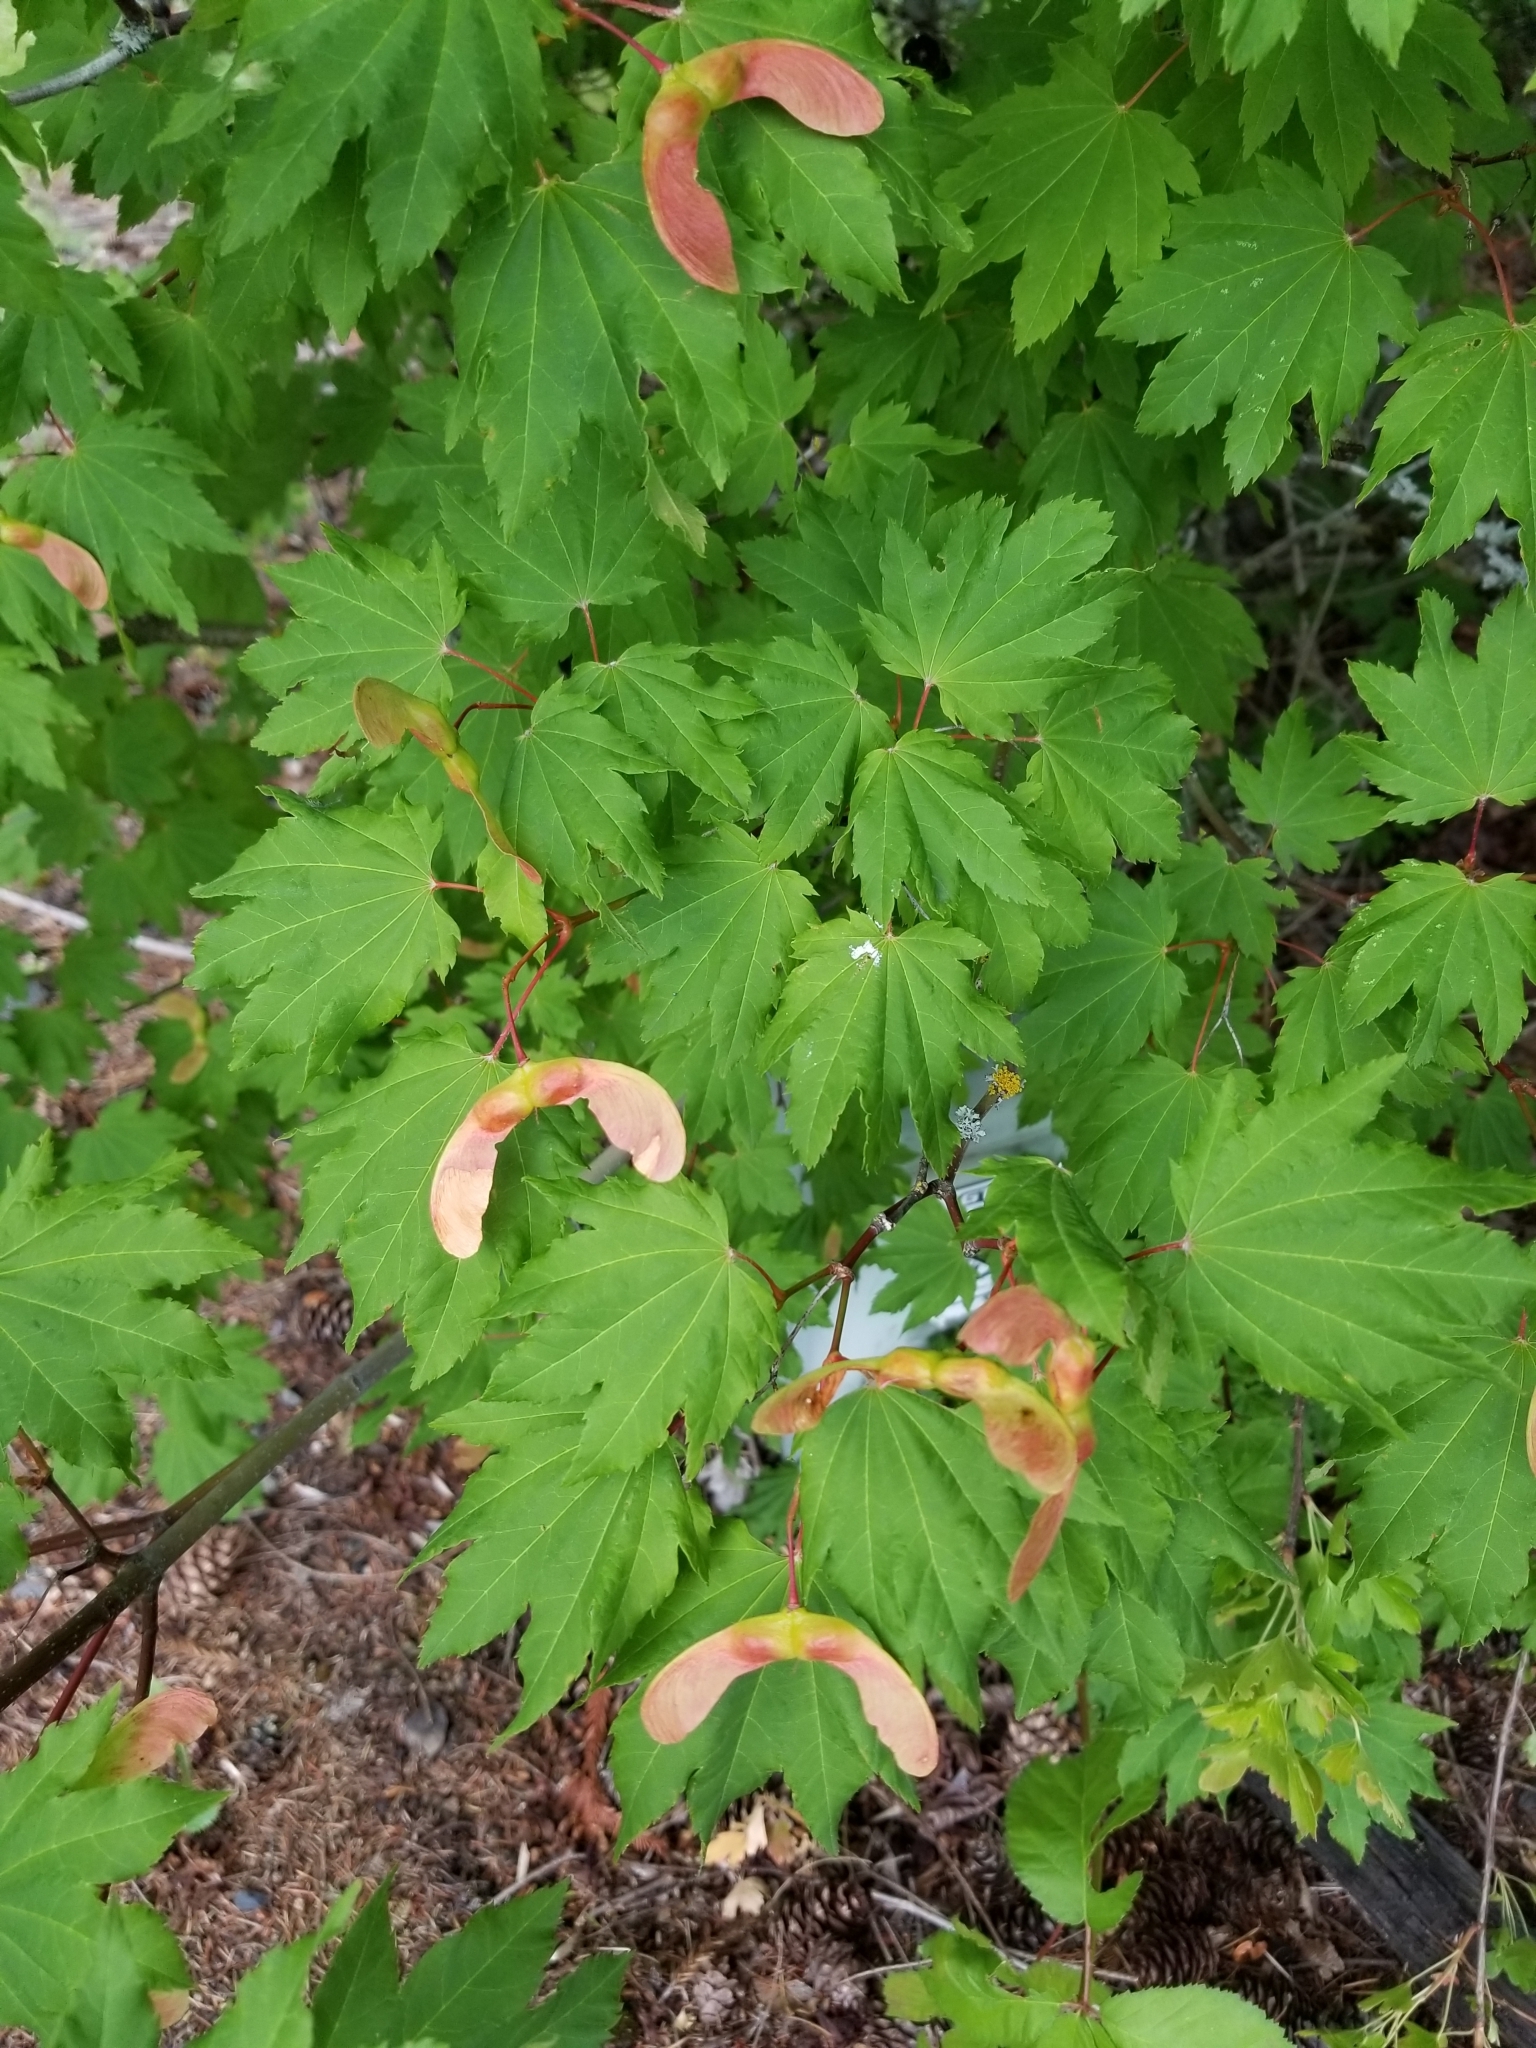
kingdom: Plantae
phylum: Tracheophyta
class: Magnoliopsida
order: Sapindales
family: Sapindaceae
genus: Acer
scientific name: Acer circinatum
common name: Vine maple
